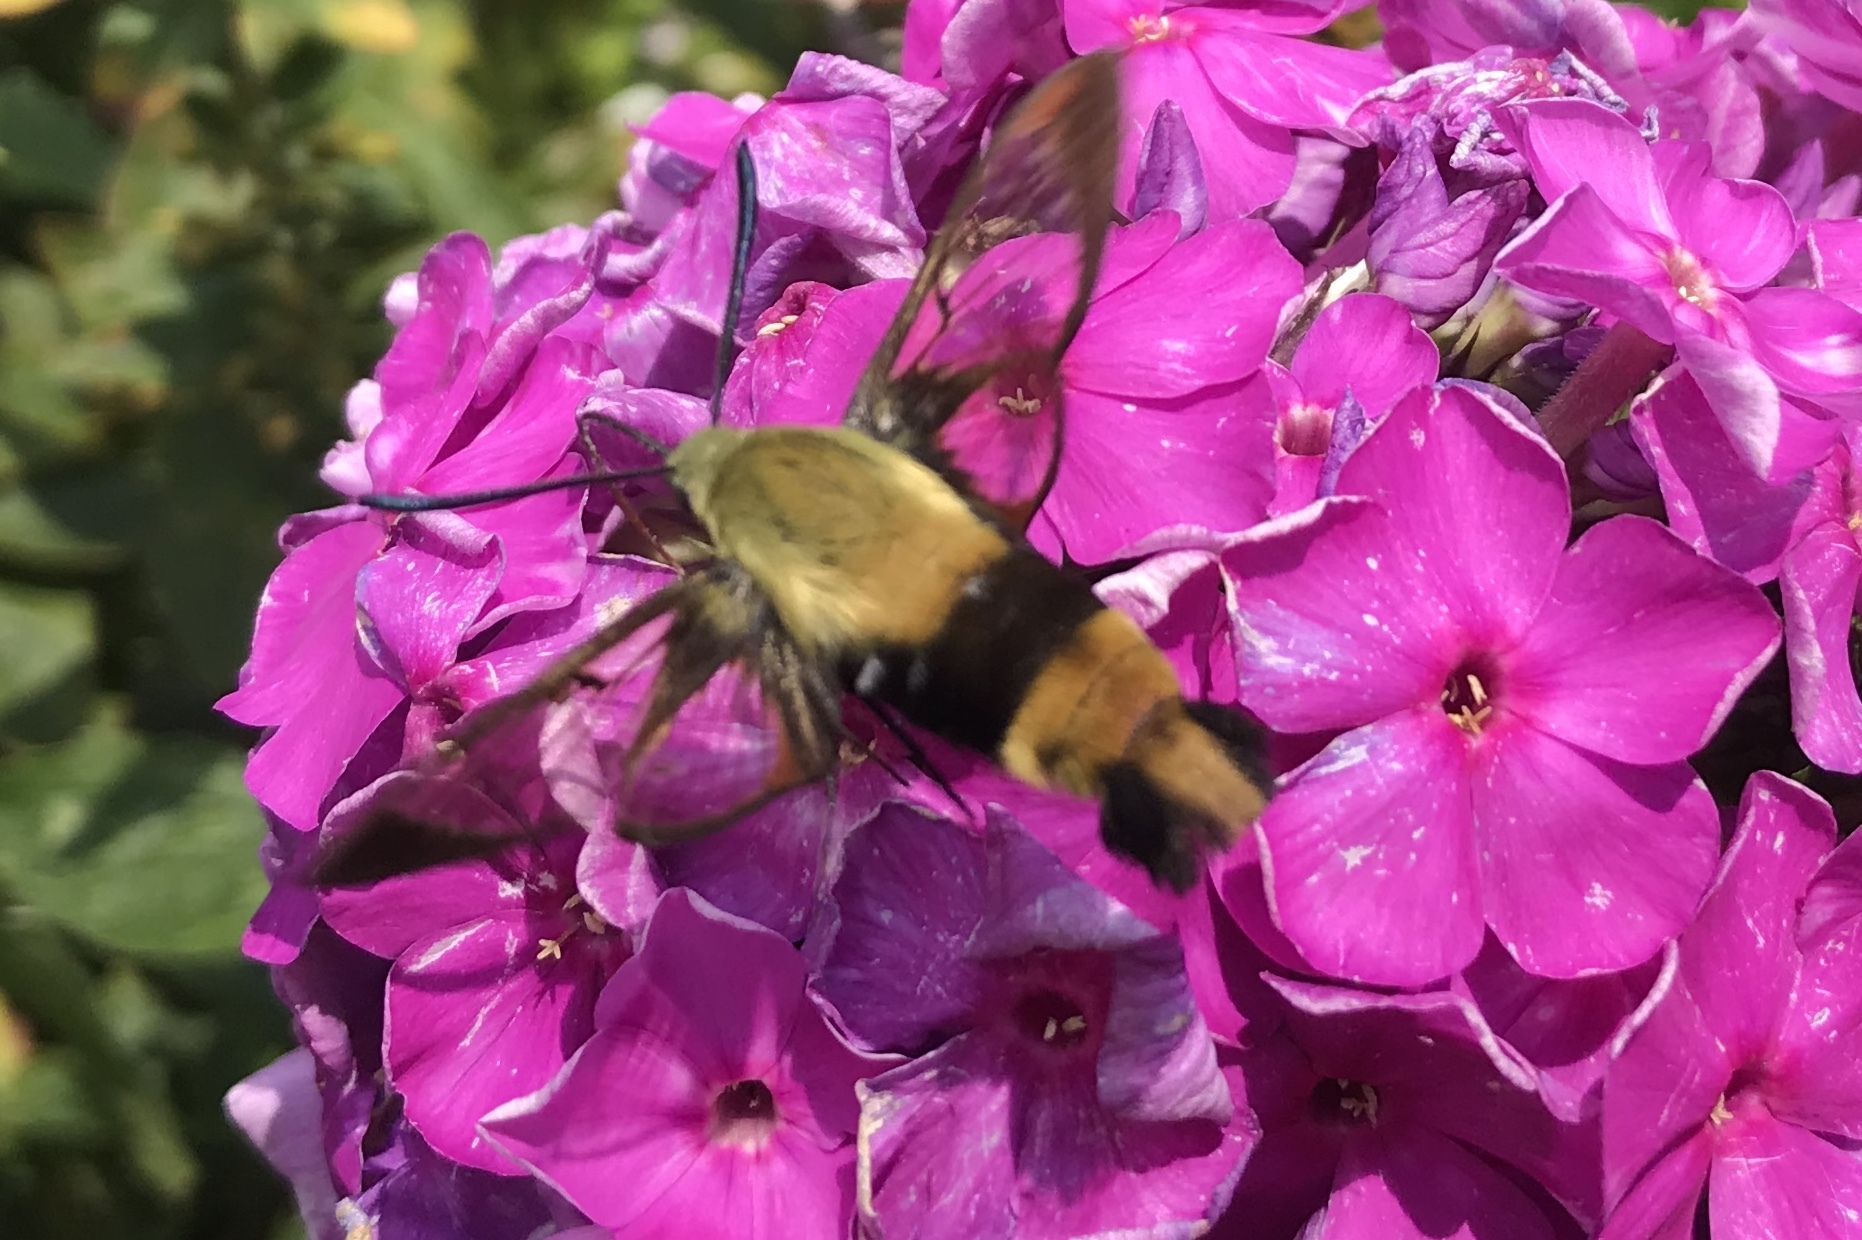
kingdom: Animalia
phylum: Arthropoda
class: Insecta
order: Lepidoptera
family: Sphingidae
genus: Hemaris
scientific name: Hemaris diffinis
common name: Bumblebee moth
